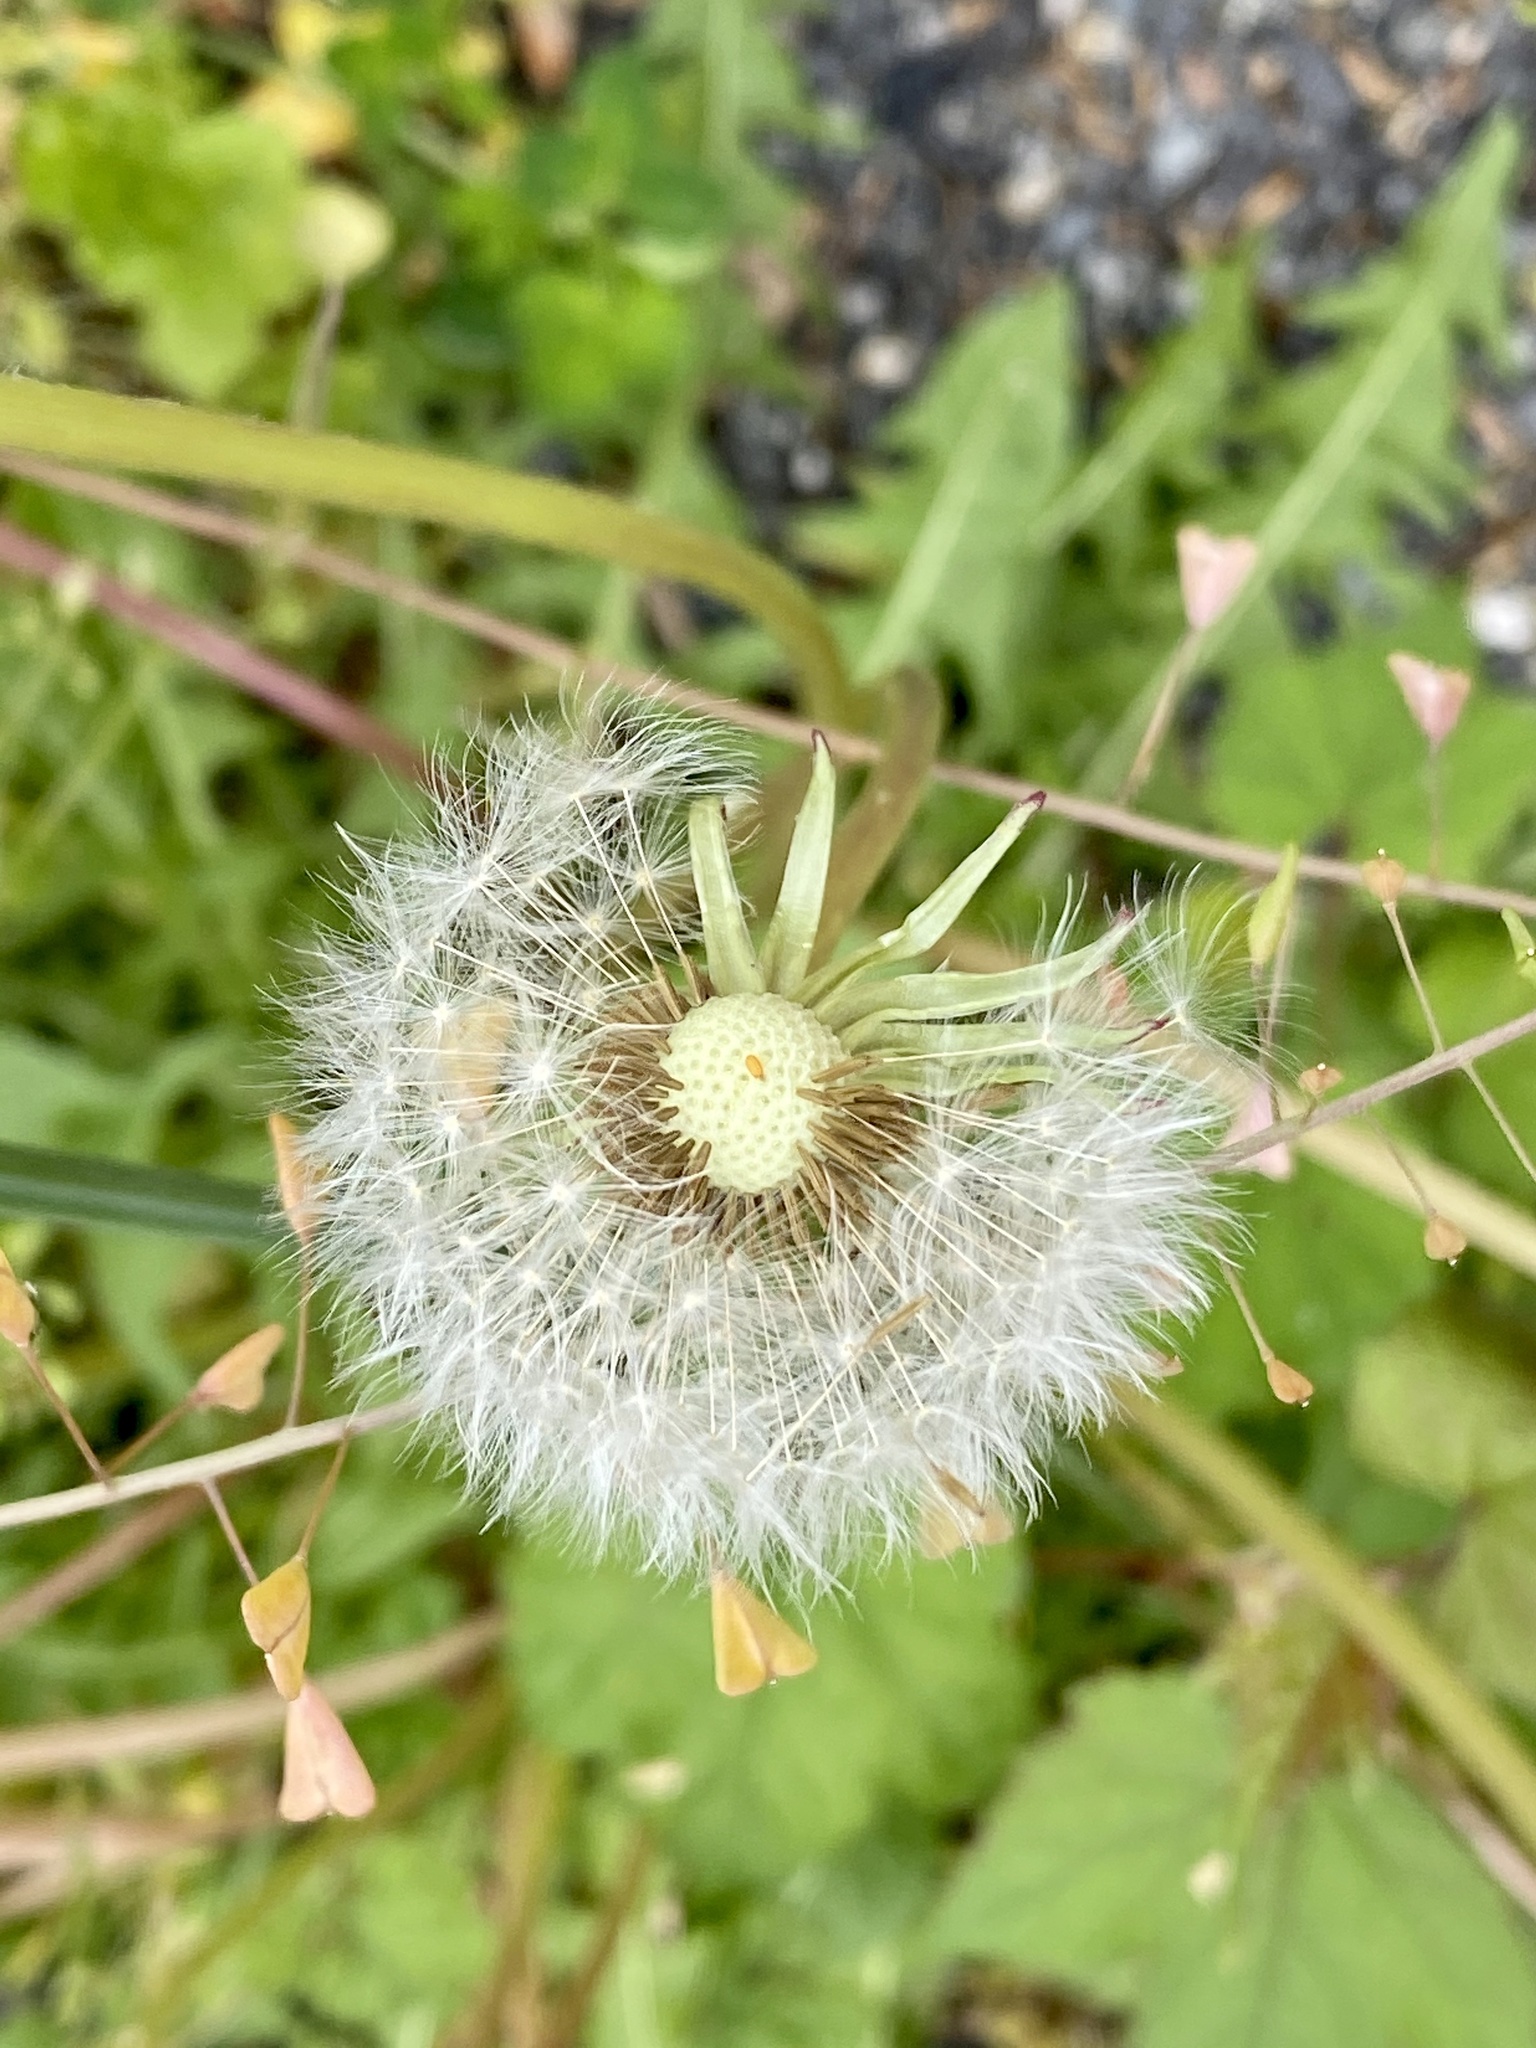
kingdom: Plantae
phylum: Tracheophyta
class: Magnoliopsida
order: Asterales
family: Asteraceae
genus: Taraxacum
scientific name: Taraxacum officinale
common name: Common dandelion
